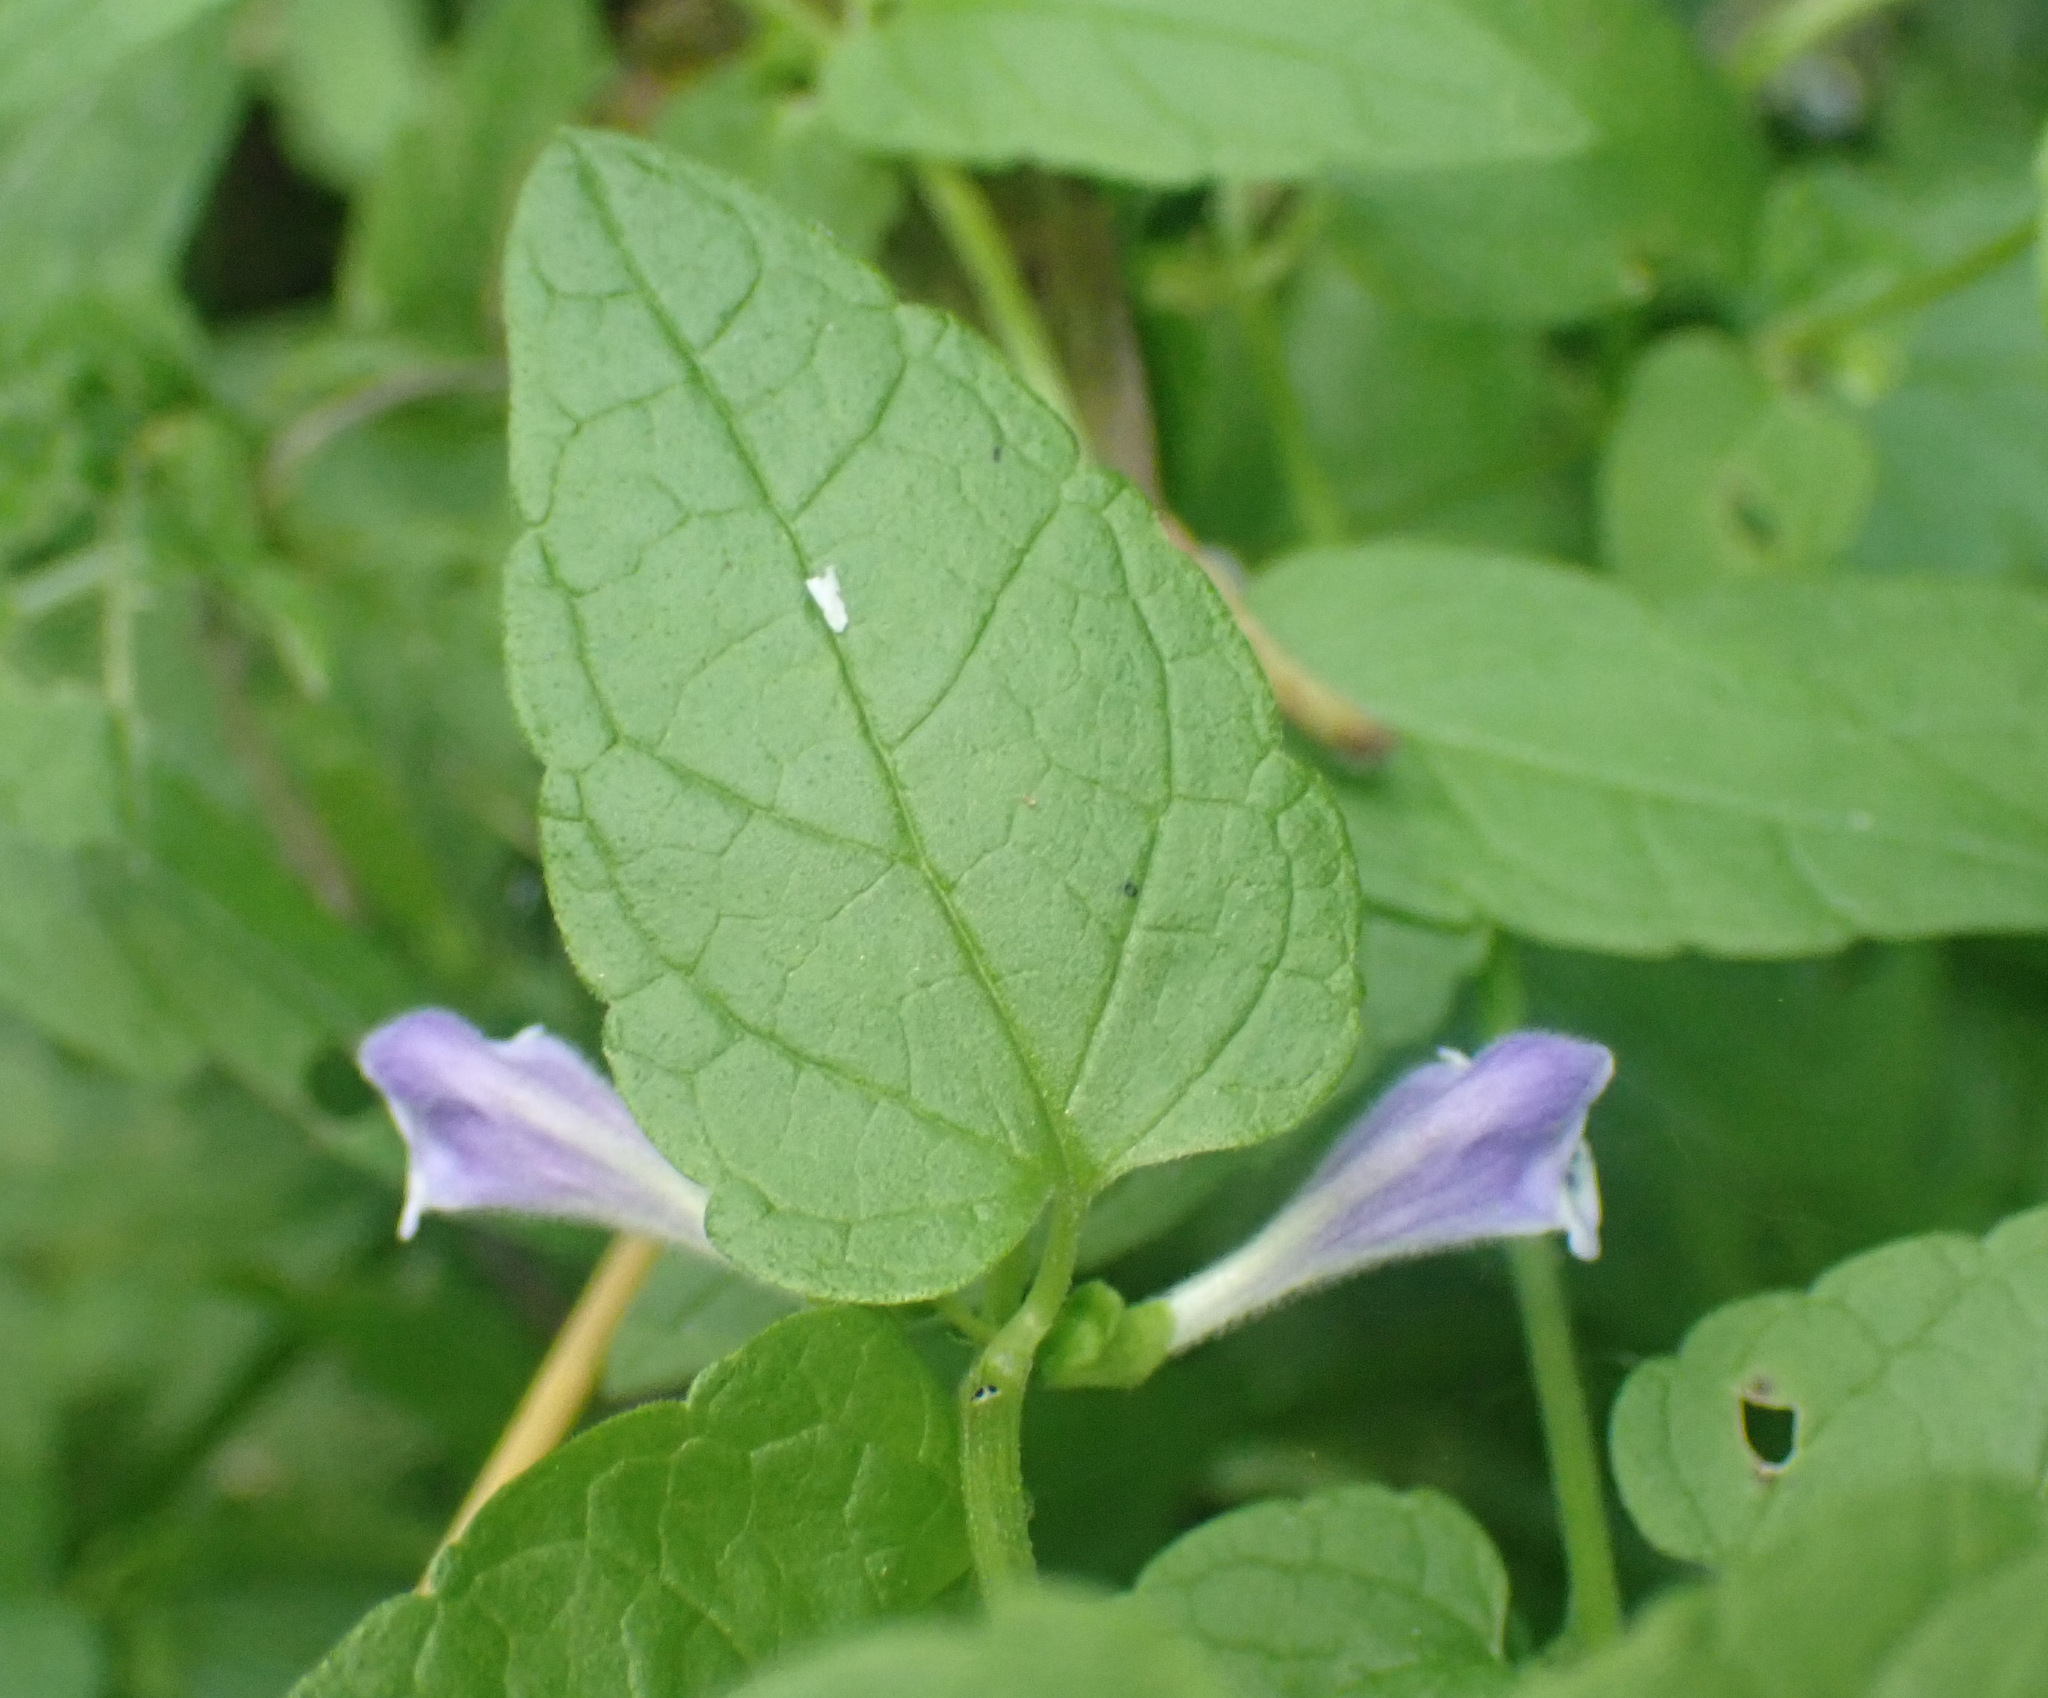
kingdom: Plantae
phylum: Tracheophyta
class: Magnoliopsida
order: Lamiales
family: Lamiaceae
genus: Scutellaria
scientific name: Scutellaria galericulata
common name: Skullcap
